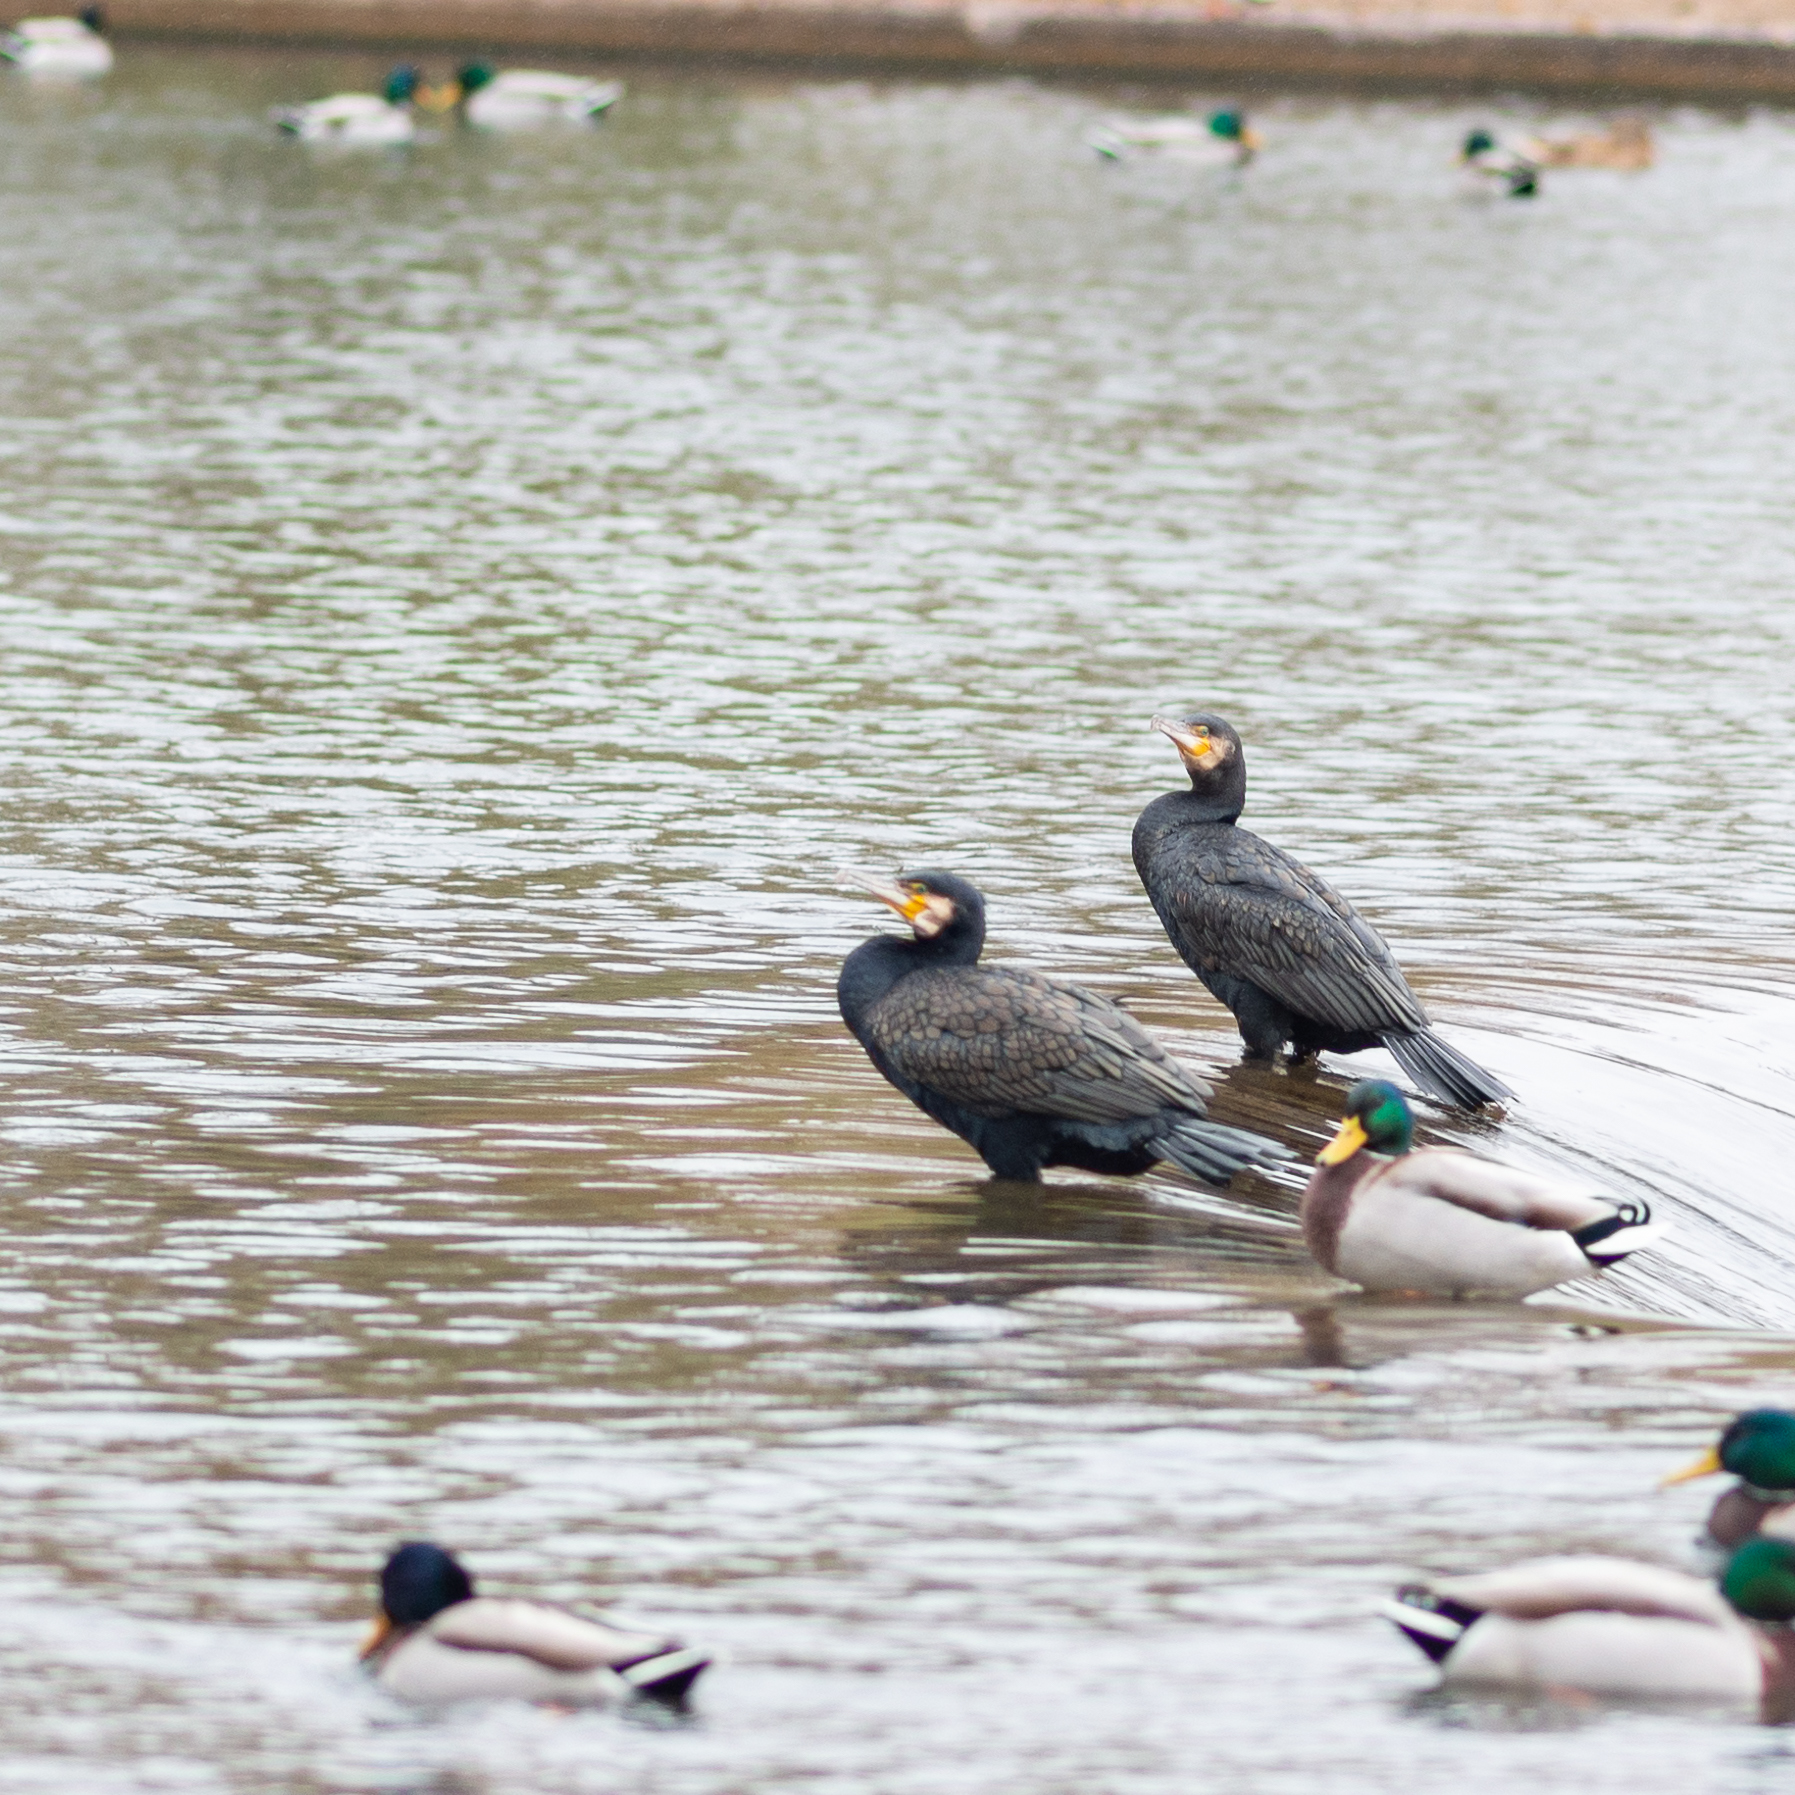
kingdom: Animalia
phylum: Chordata
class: Aves
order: Suliformes
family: Phalacrocoracidae
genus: Phalacrocorax
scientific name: Phalacrocorax carbo
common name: Great cormorant
